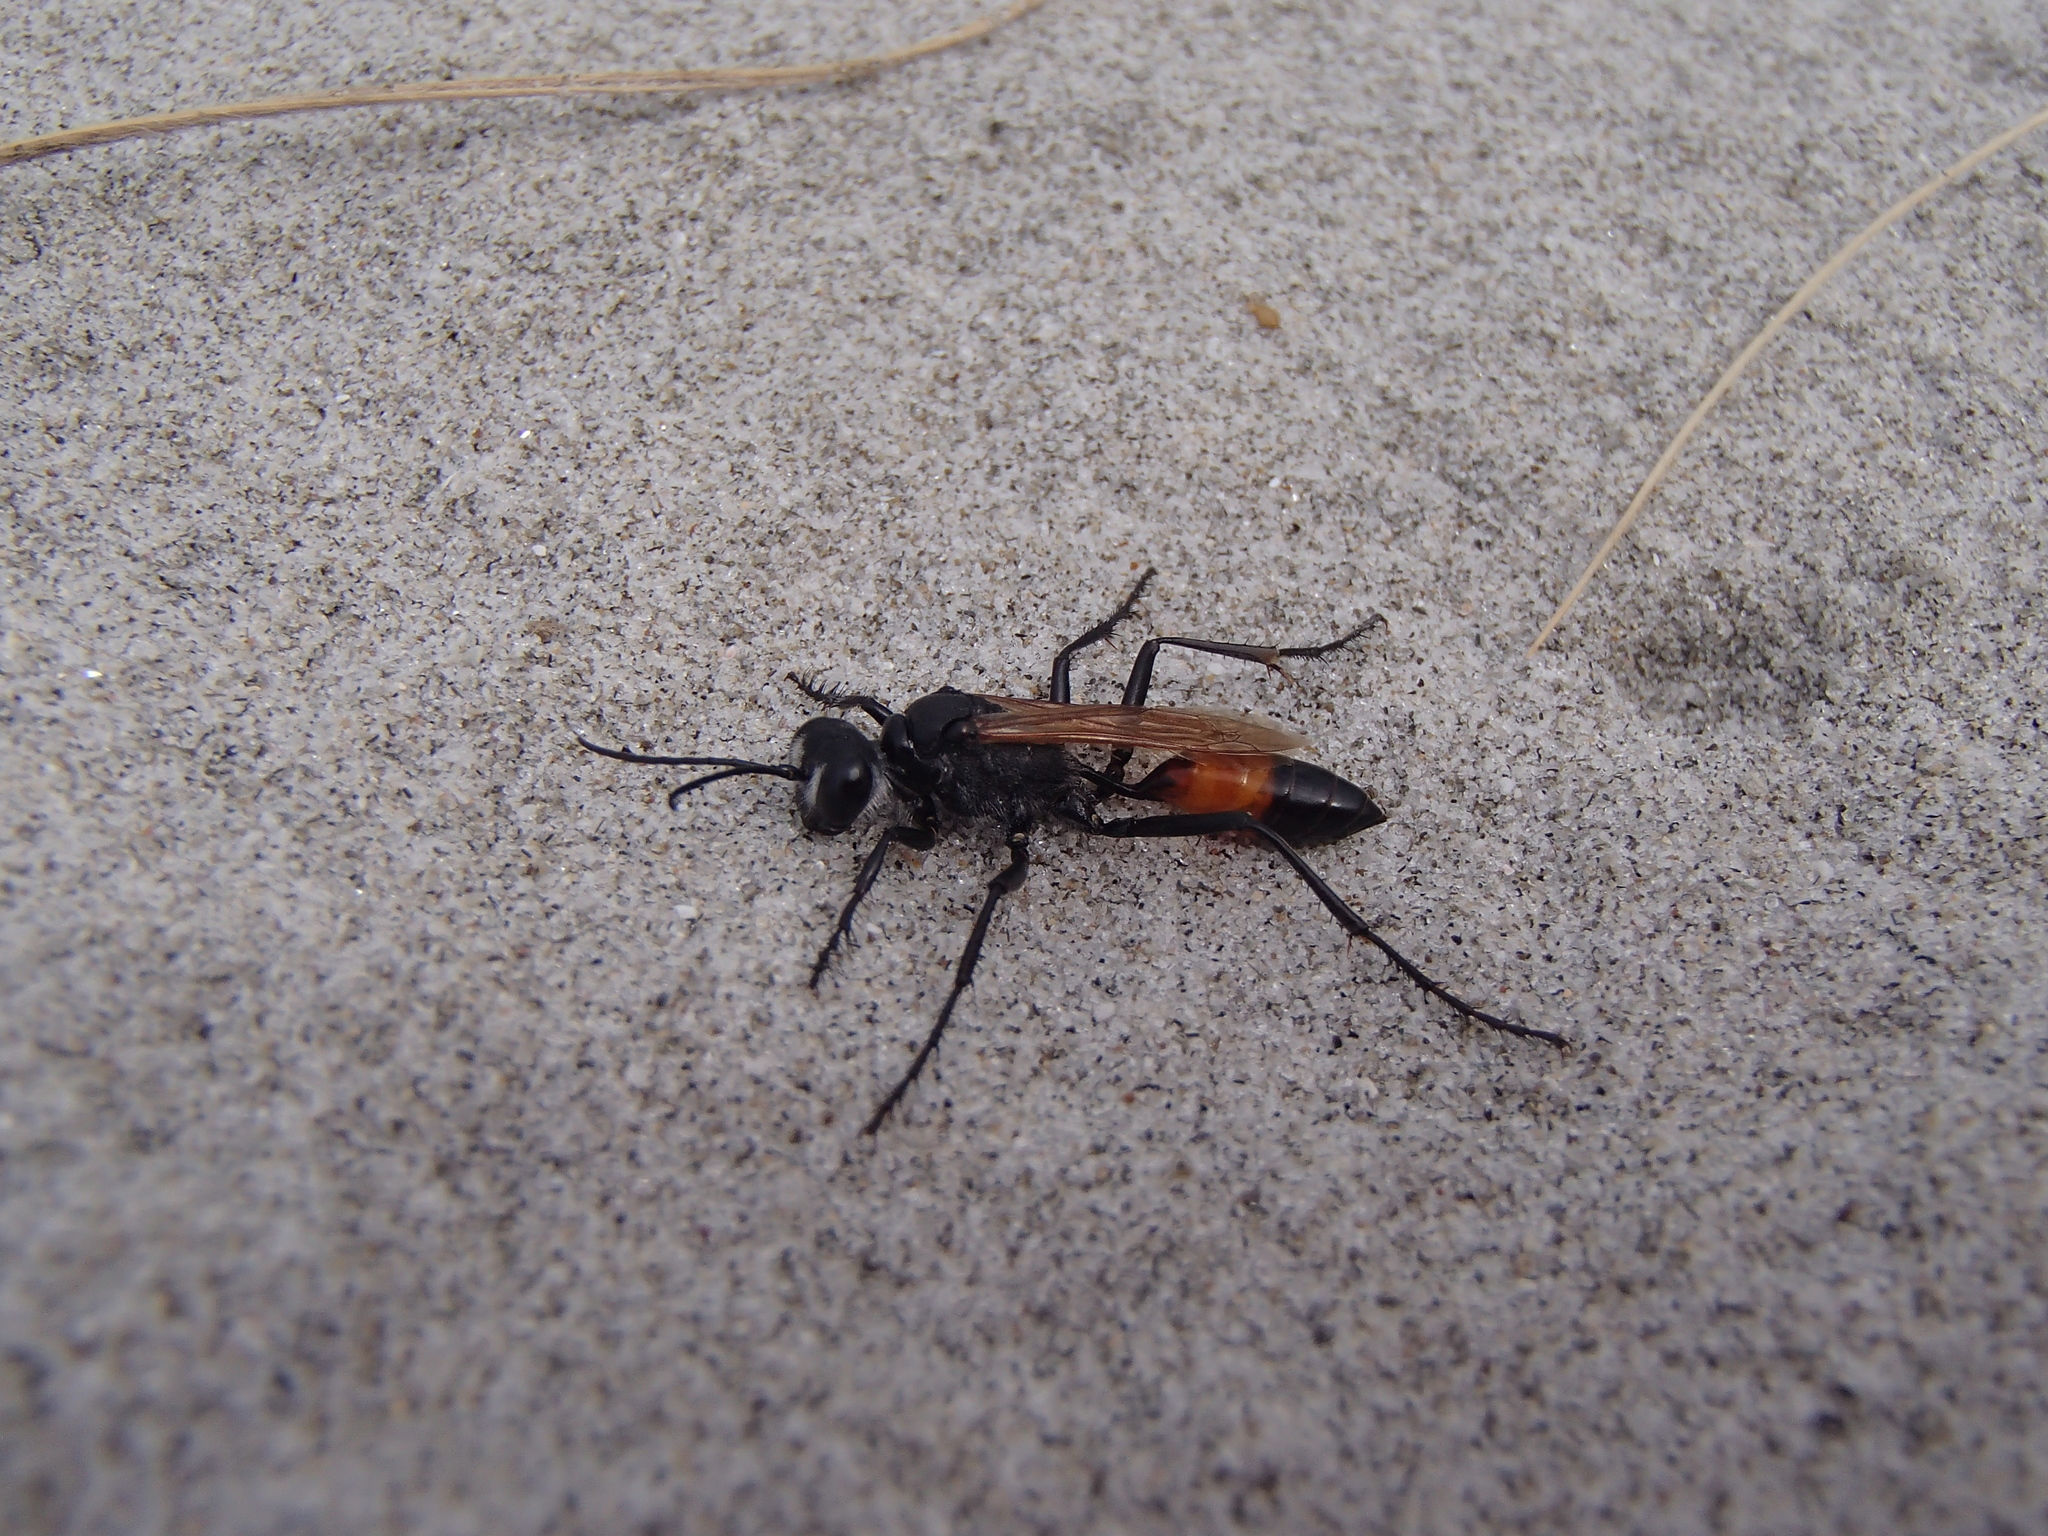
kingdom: Animalia
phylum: Arthropoda
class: Insecta
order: Hymenoptera
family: Sphecidae
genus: Podalonia
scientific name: Podalonia tydei
